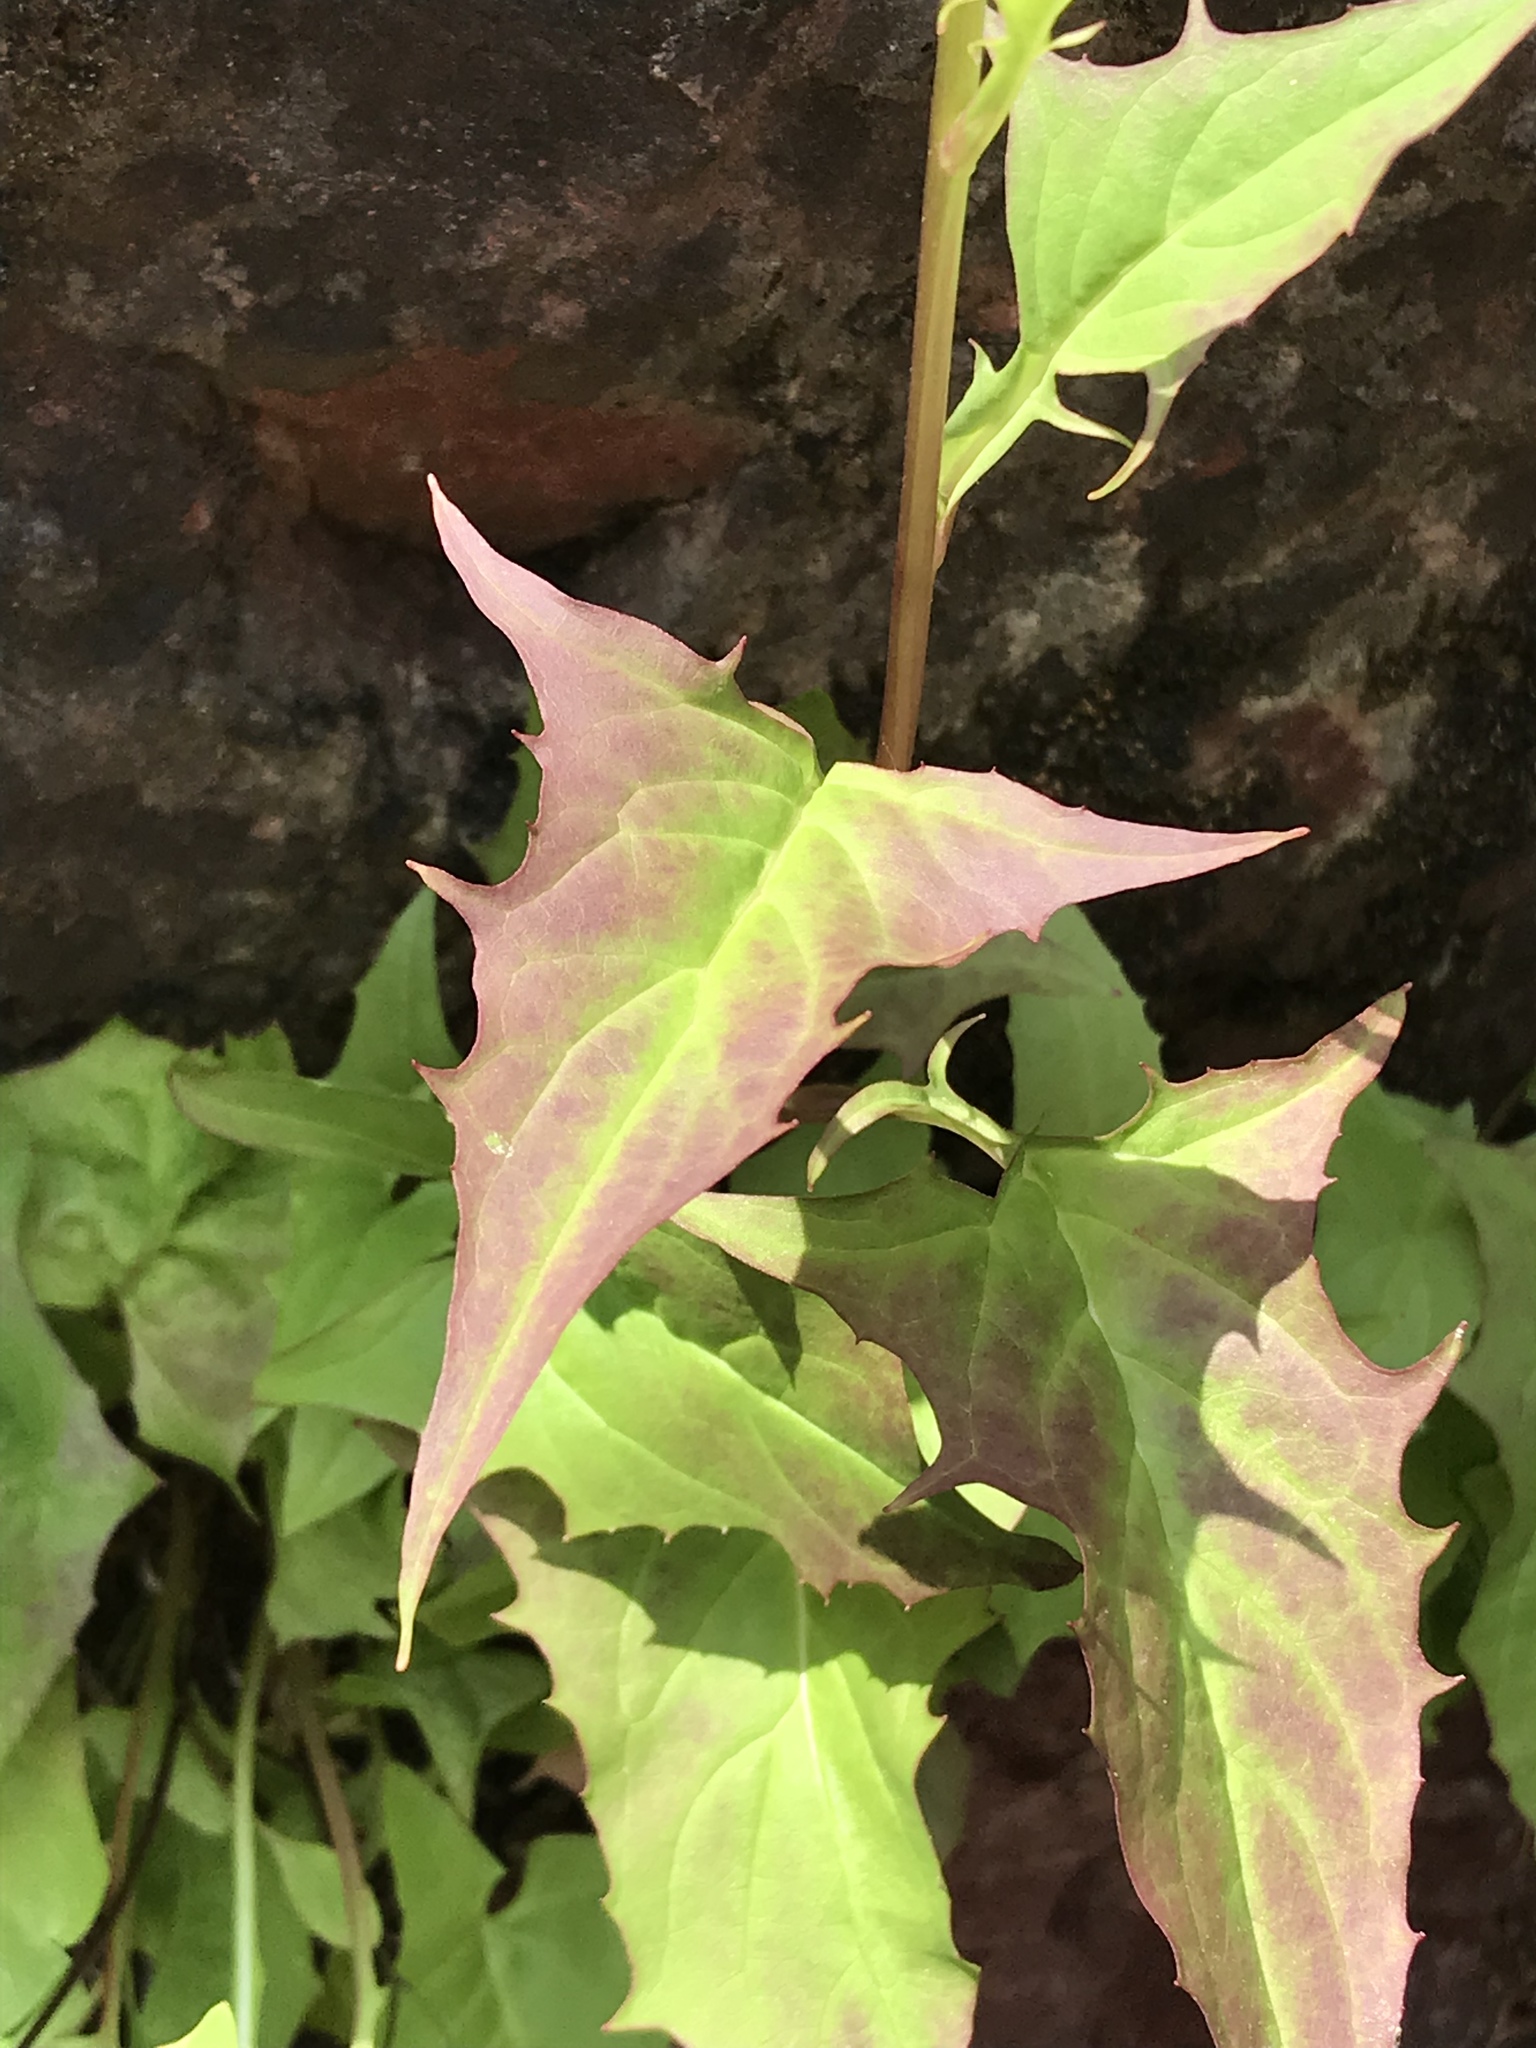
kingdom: Plantae
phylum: Tracheophyta
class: Magnoliopsida
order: Asterales
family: Asteraceae
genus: Nabalus
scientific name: Nabalus sagittatus
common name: Arrowleaf snakeroot
